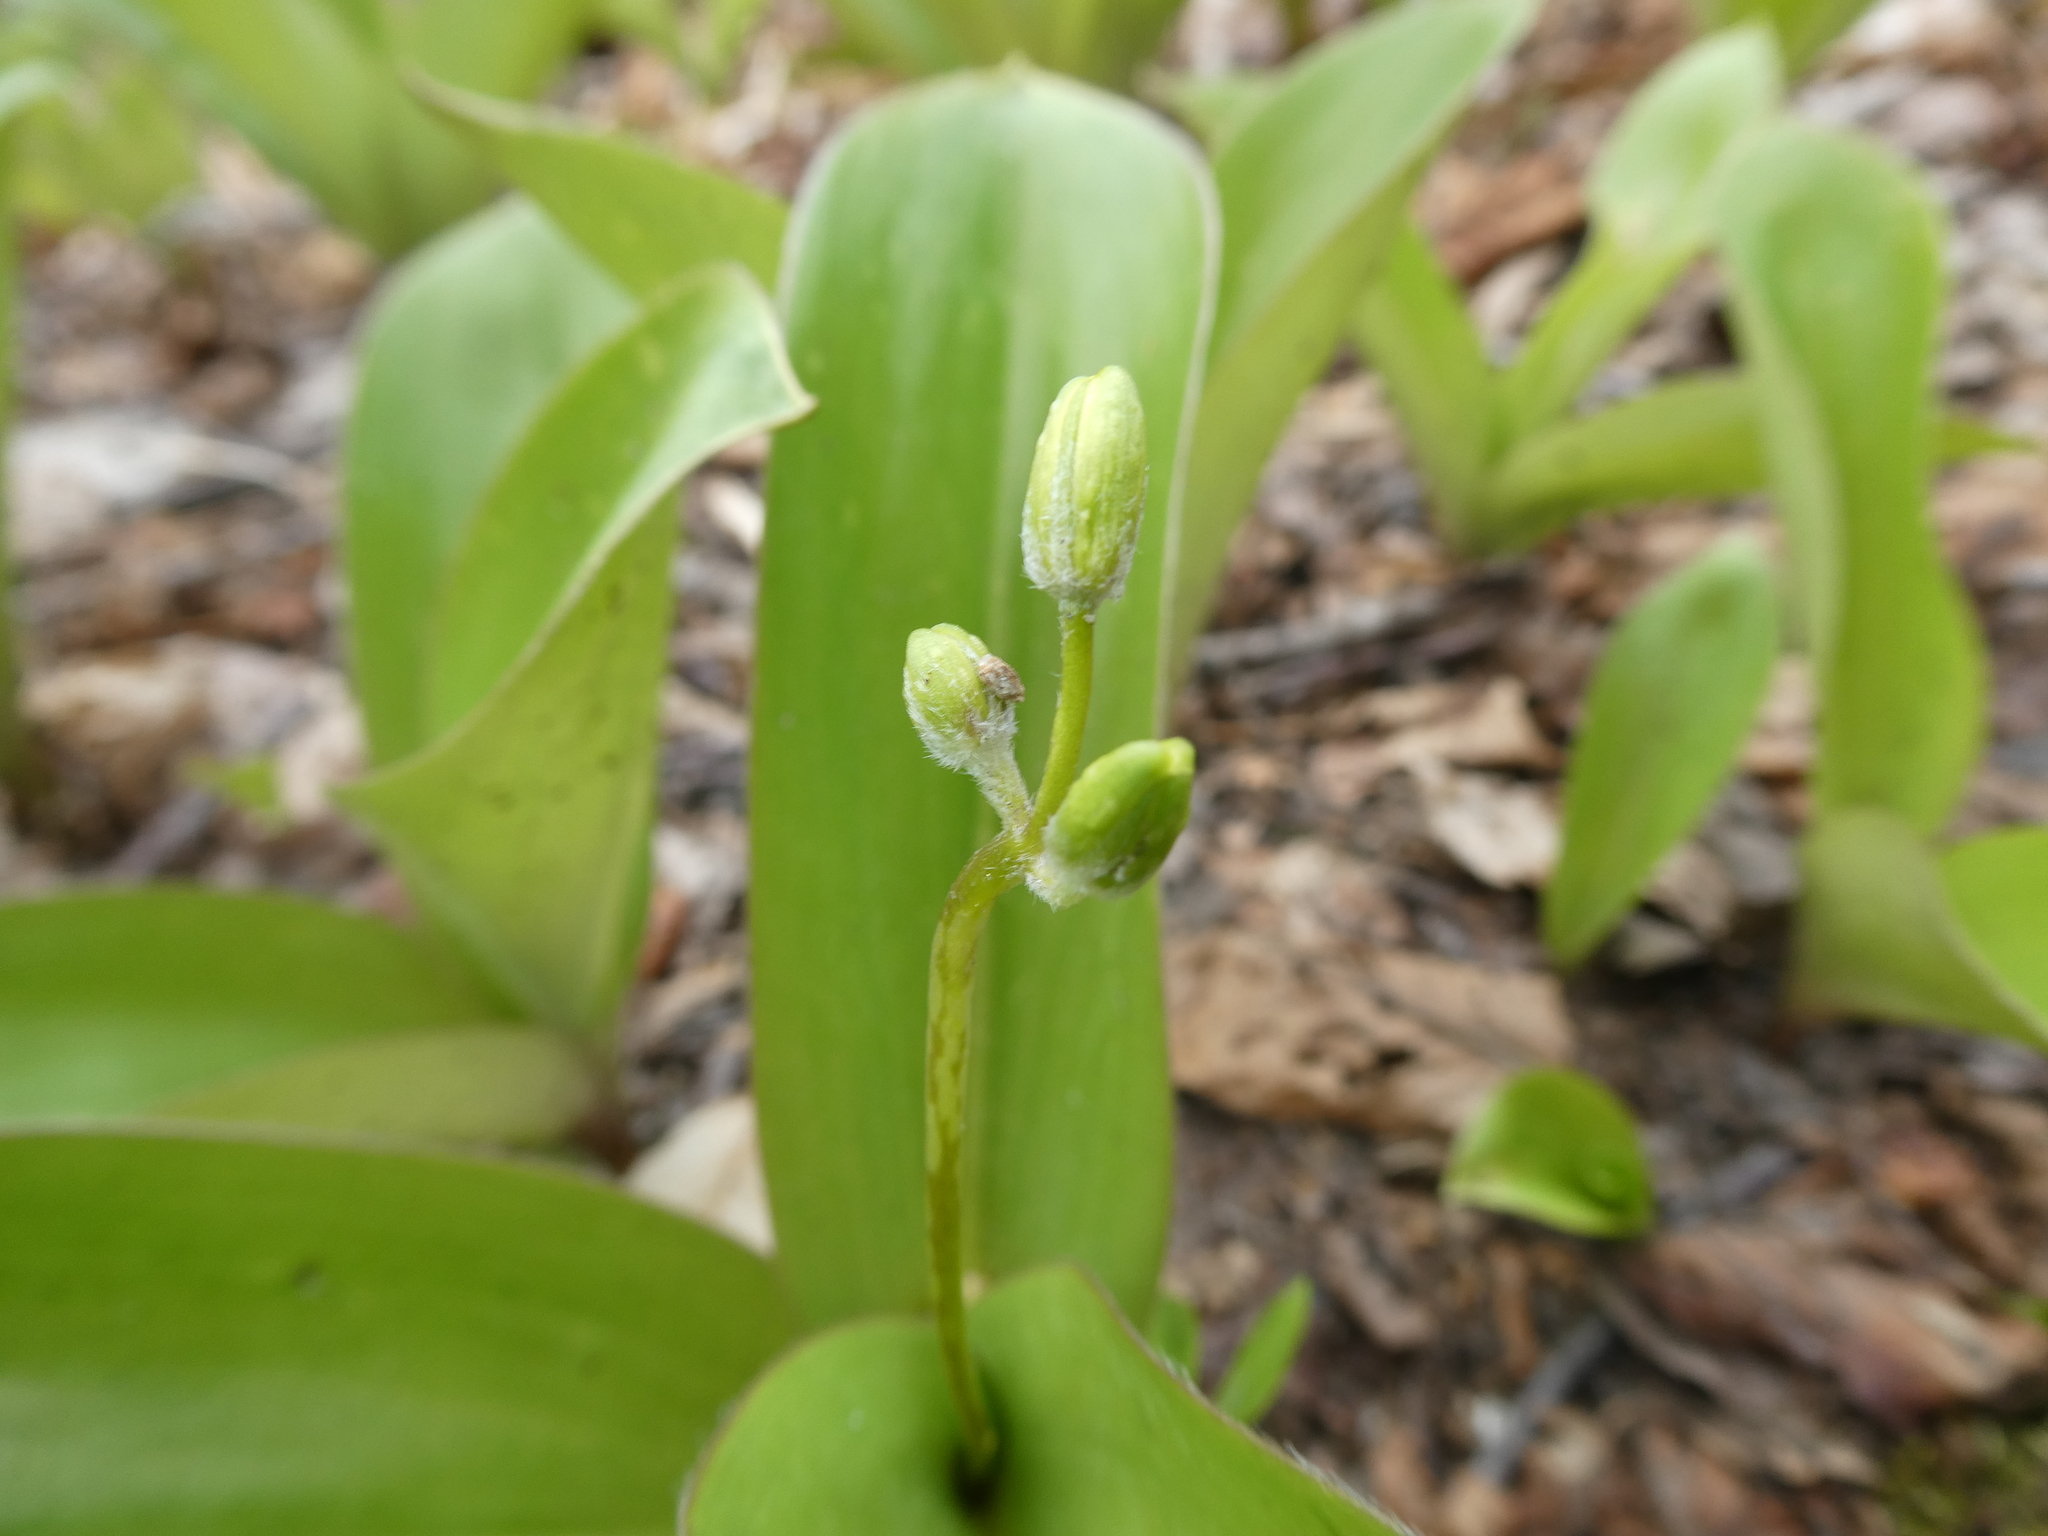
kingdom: Plantae
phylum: Tracheophyta
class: Liliopsida
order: Liliales
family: Liliaceae
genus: Clintonia
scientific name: Clintonia borealis
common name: Yellow clintonia
